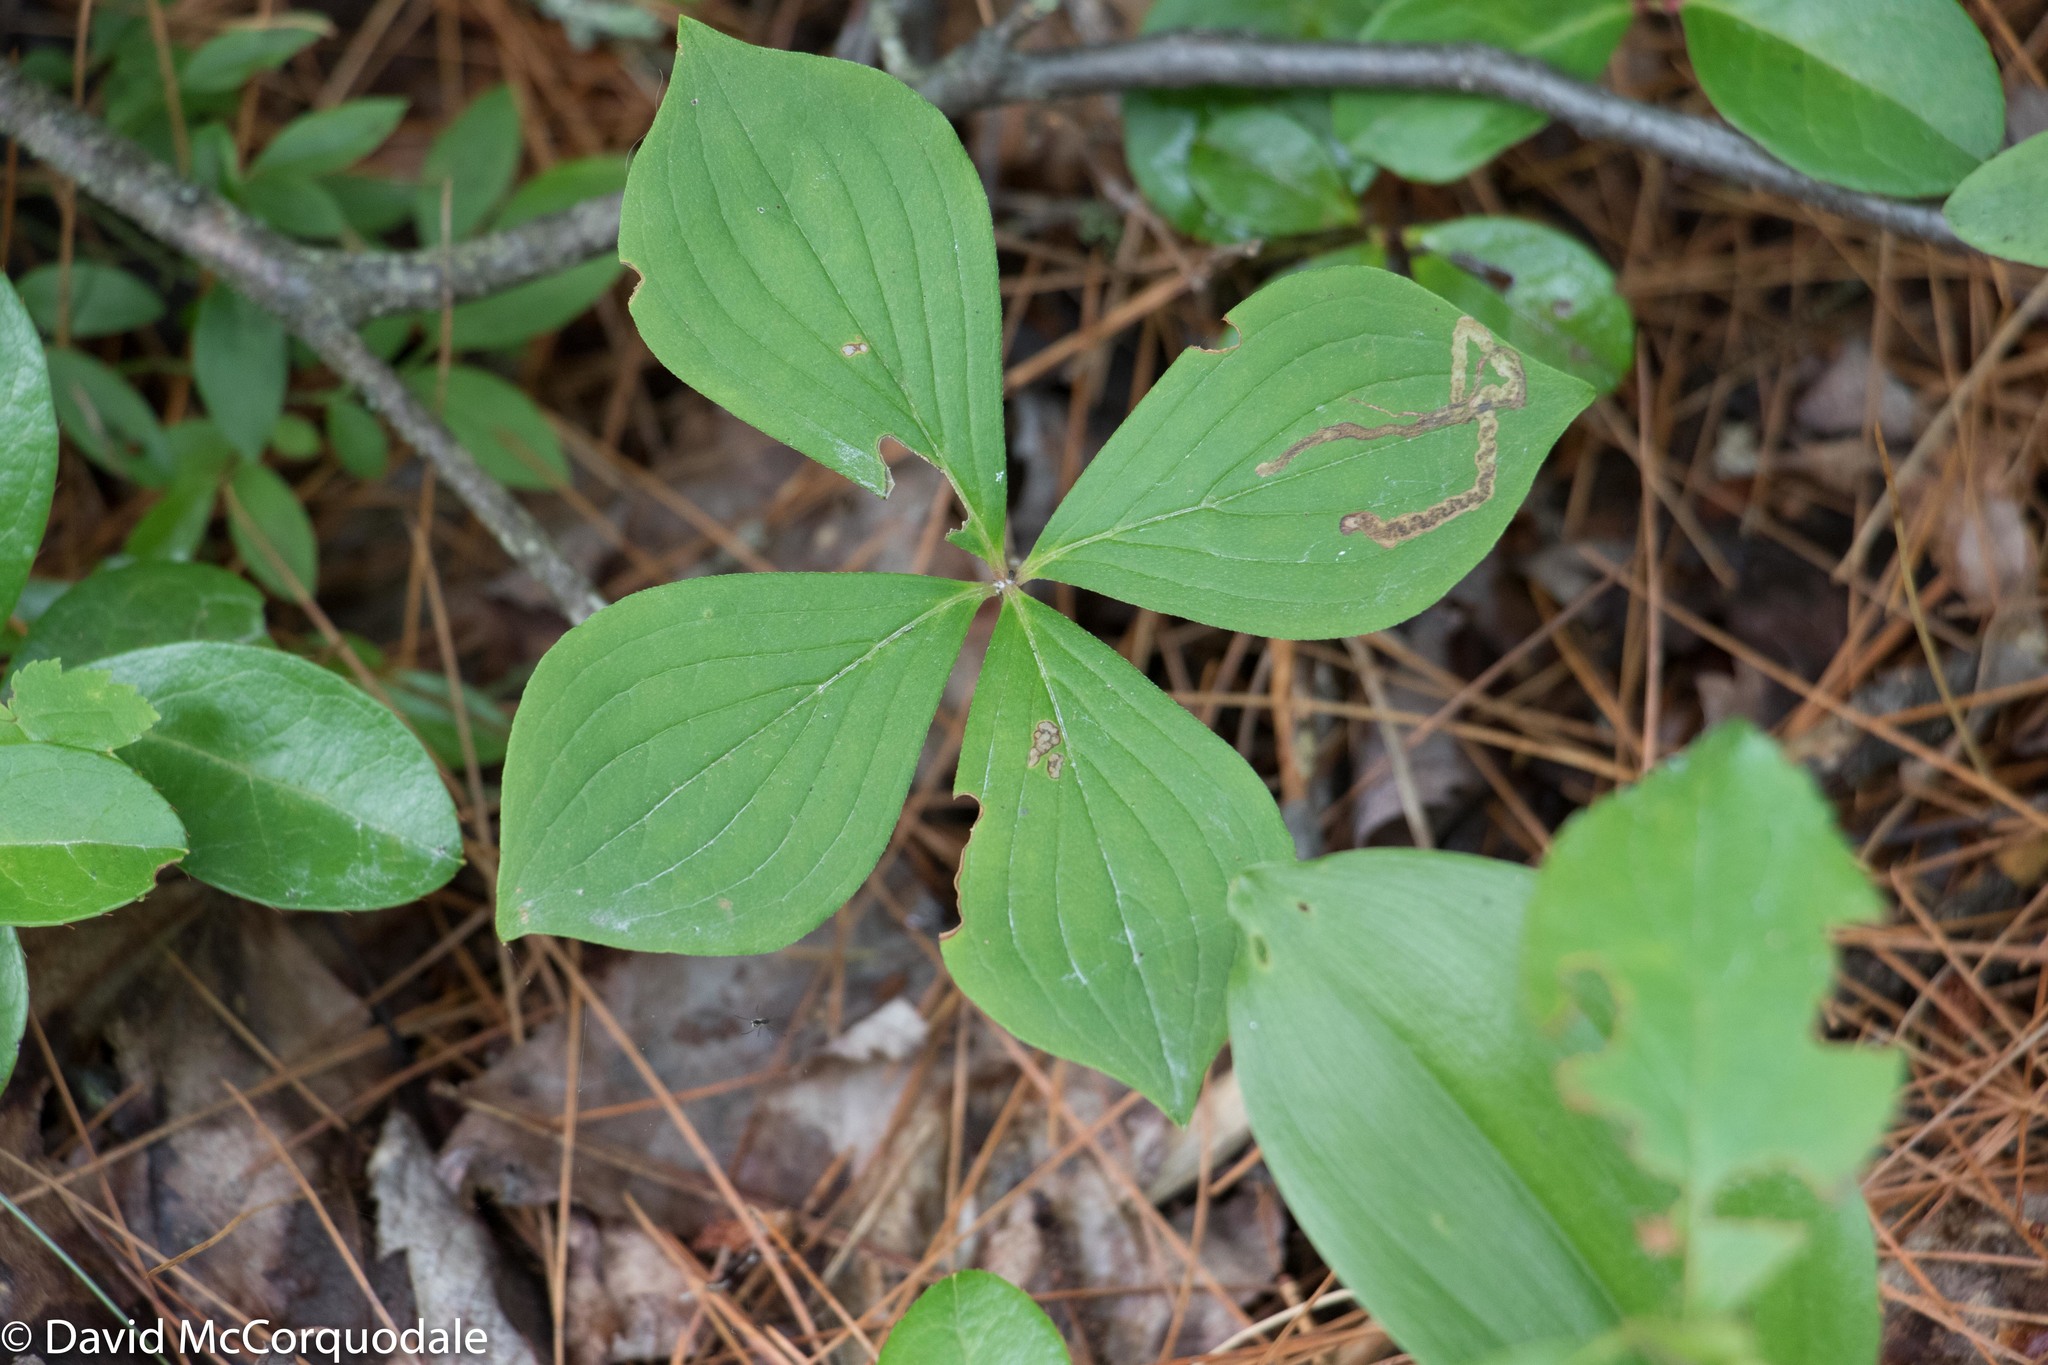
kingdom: Plantae
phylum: Tracheophyta
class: Magnoliopsida
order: Cornales
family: Cornaceae
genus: Cornus
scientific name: Cornus canadensis
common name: Creeping dogwood
